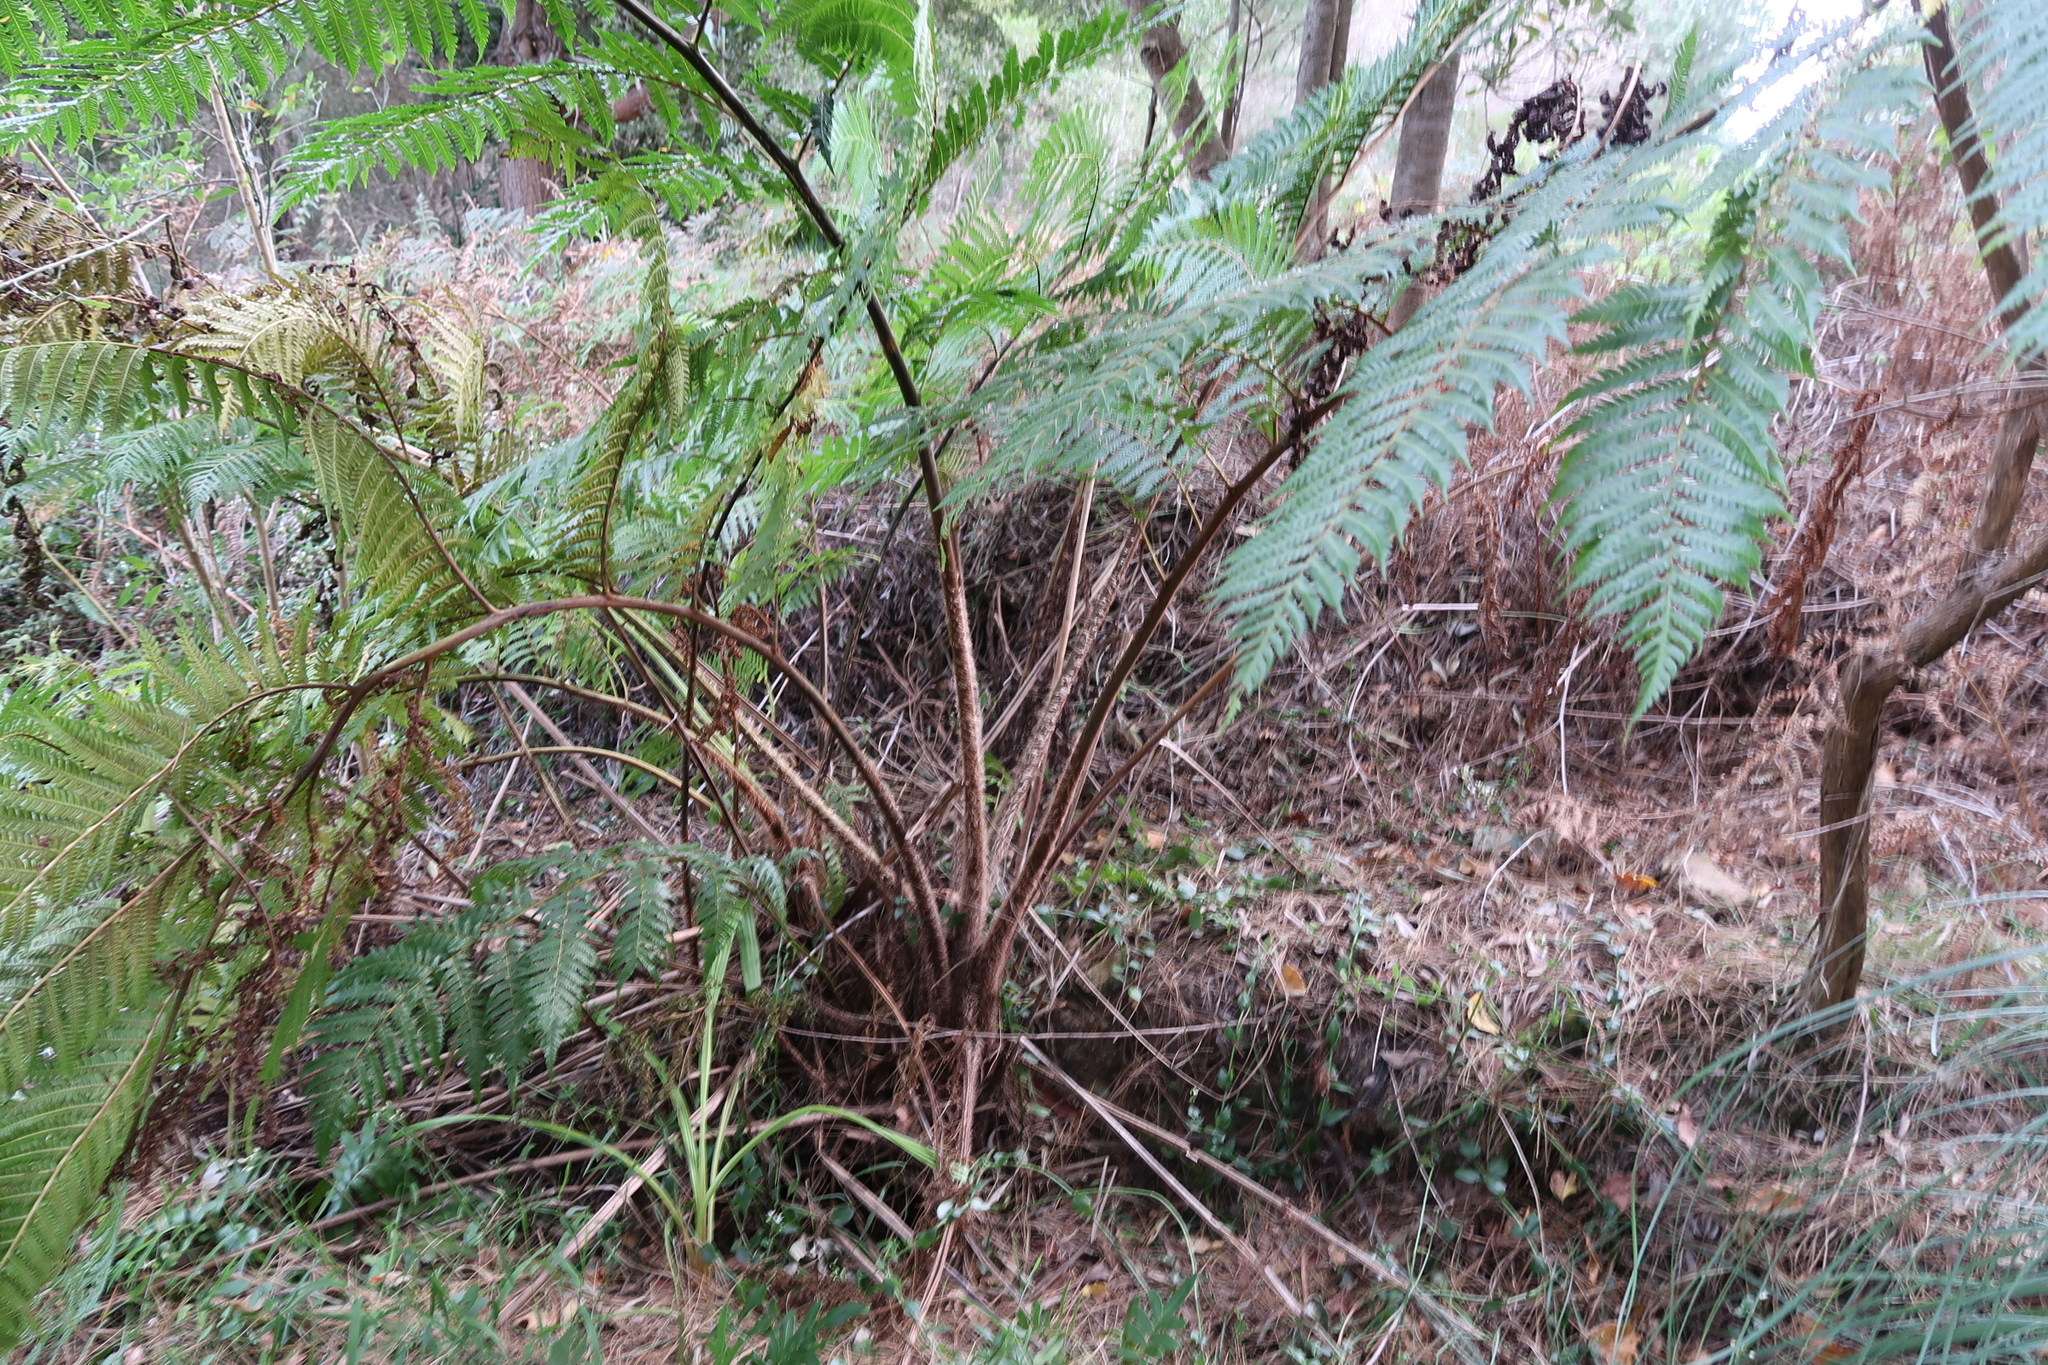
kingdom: Plantae
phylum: Tracheophyta
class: Polypodiopsida
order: Cyatheales
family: Cyatheaceae
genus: Sphaeropteris
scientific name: Sphaeropteris cooperi
